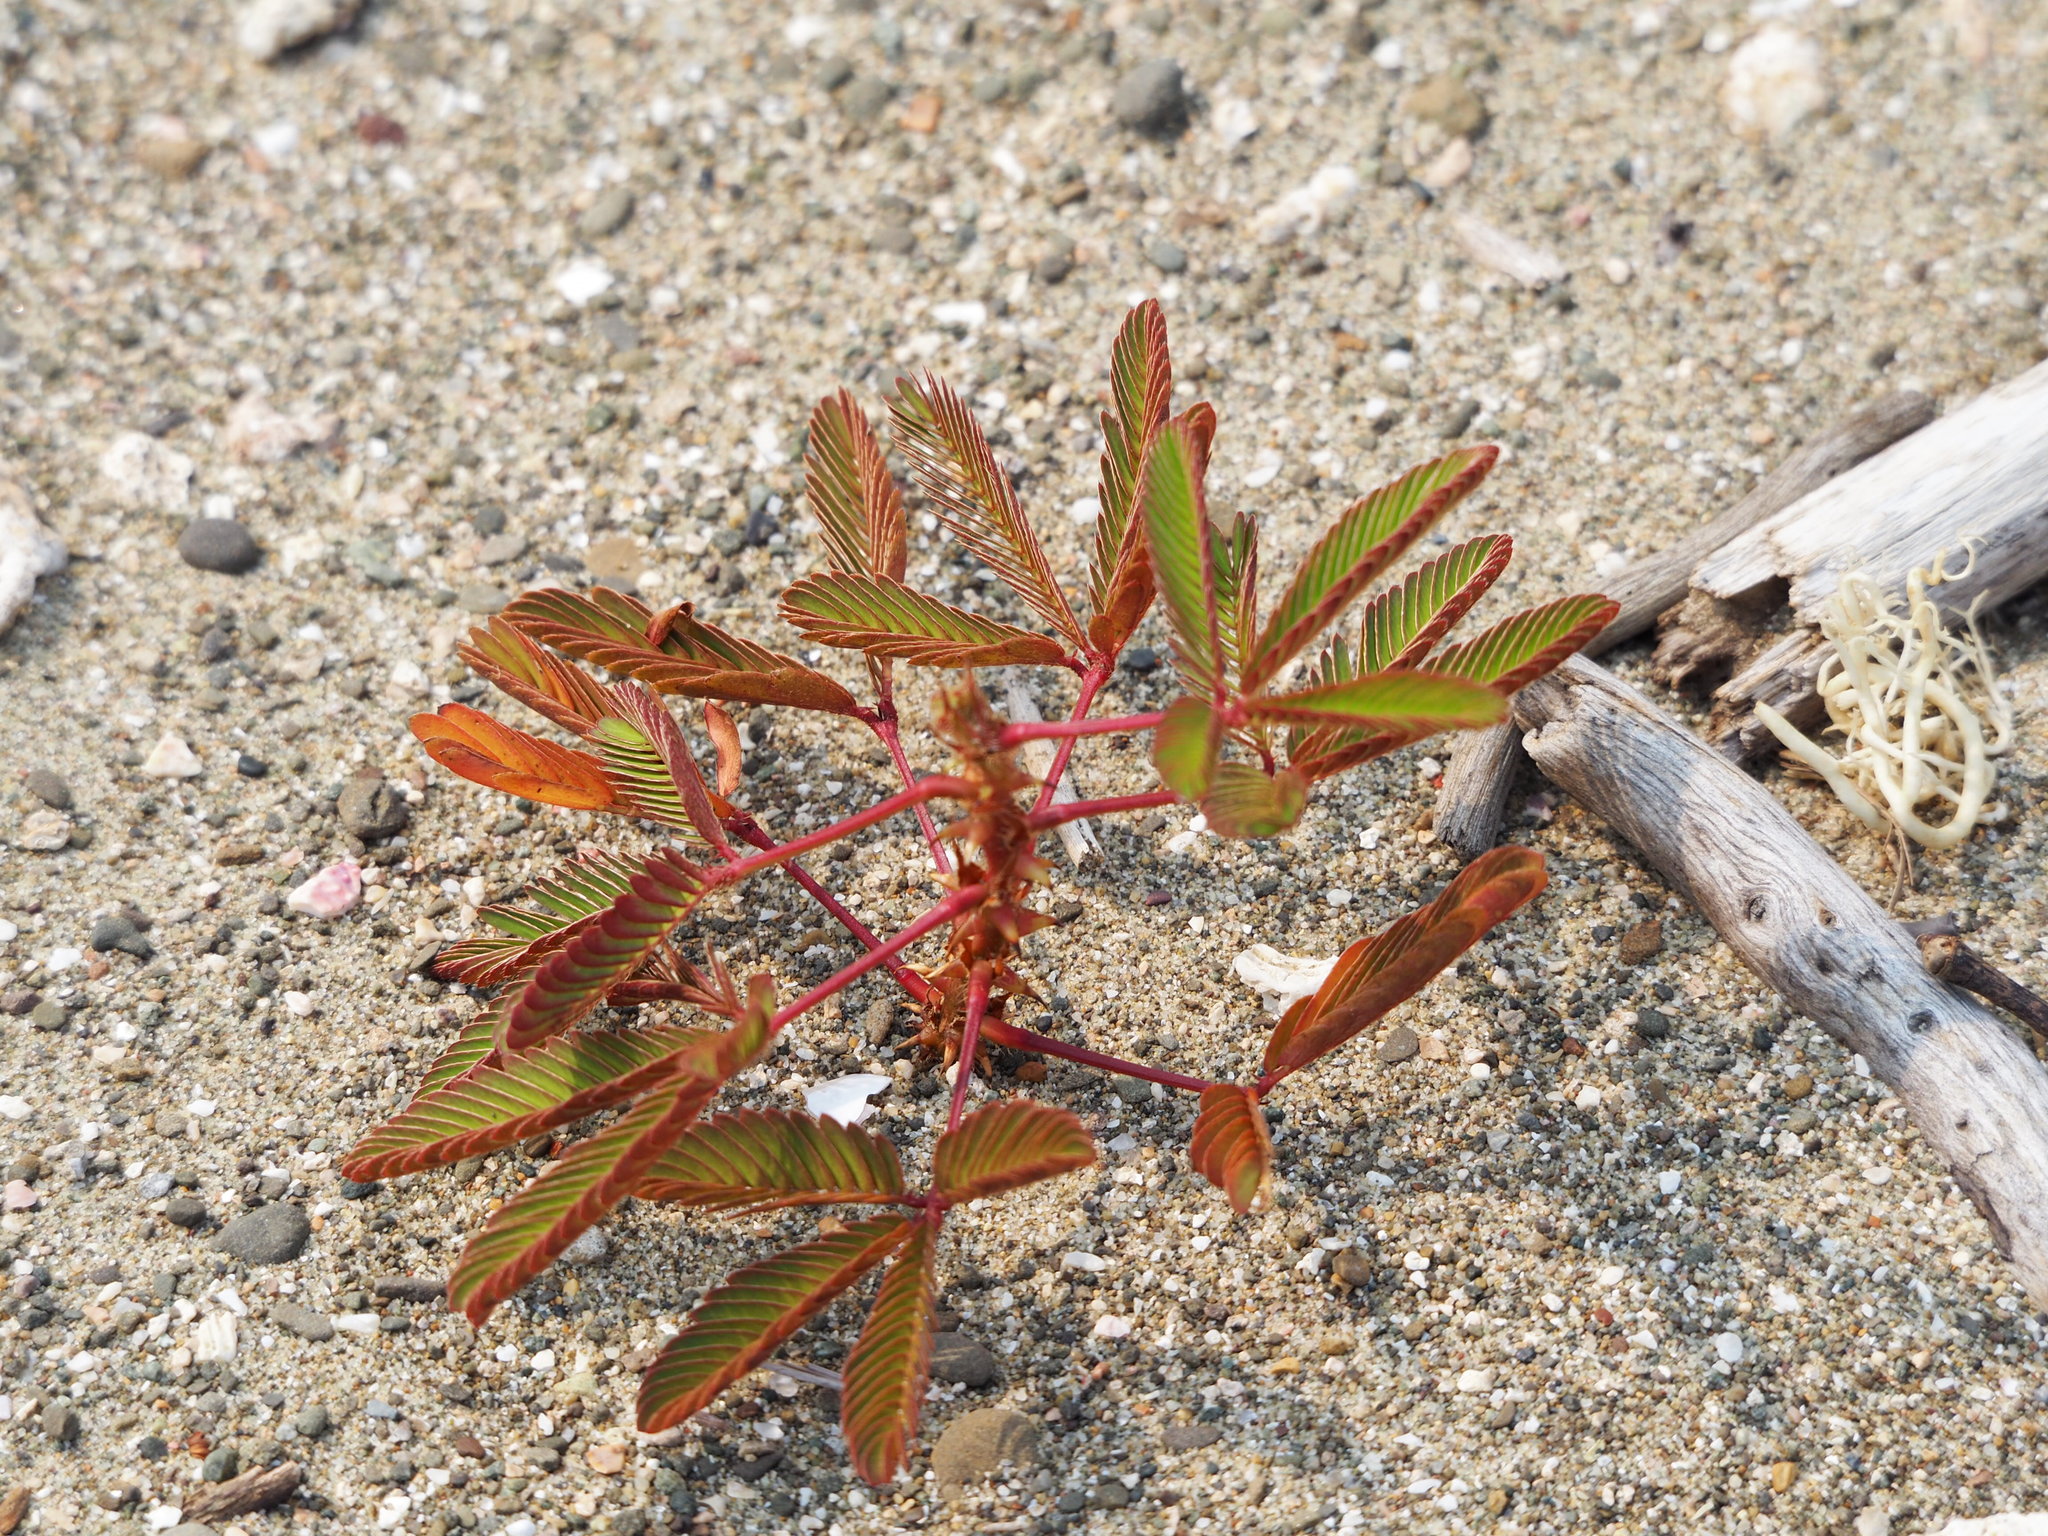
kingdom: Plantae
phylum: Tracheophyta
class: Magnoliopsida
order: Fabales
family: Fabaceae
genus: Mimosa
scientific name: Mimosa pudica
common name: Sensitive plant
